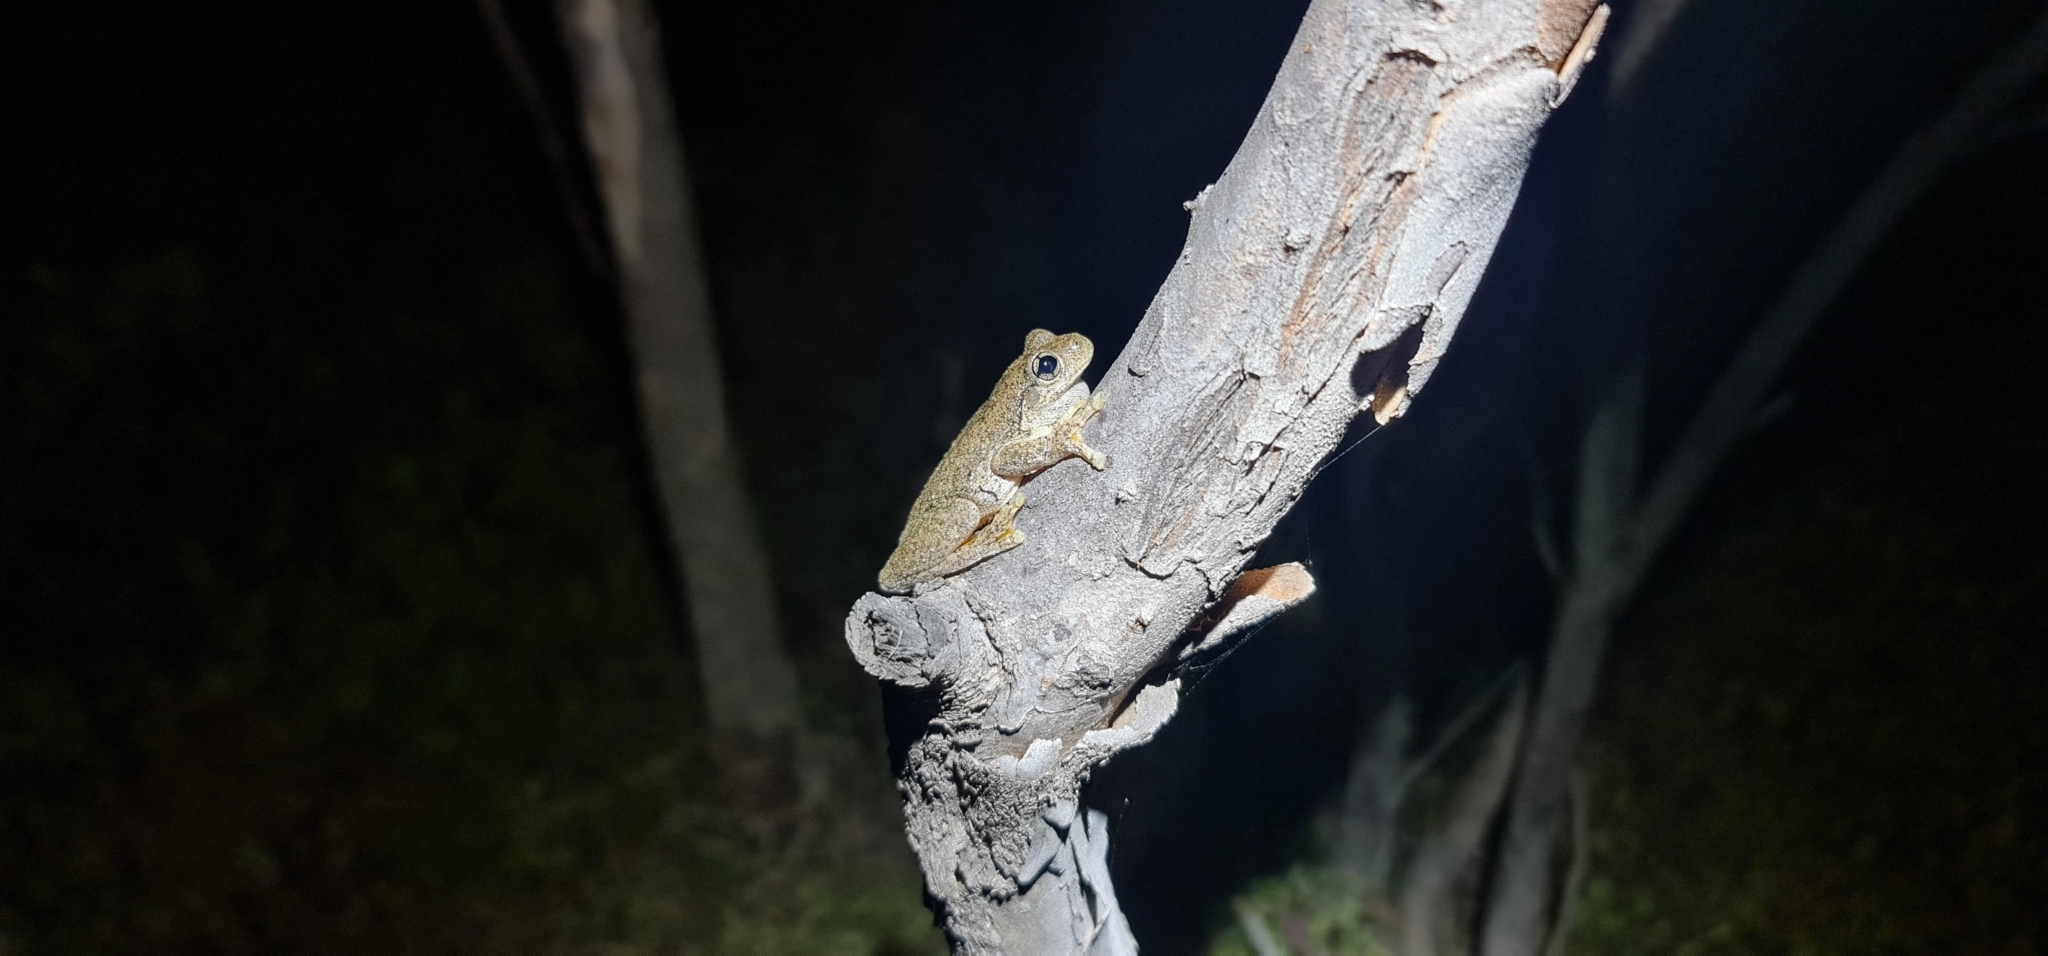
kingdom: Animalia
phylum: Chordata
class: Amphibia
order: Anura
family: Pelodryadidae
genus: Litoria
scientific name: Litoria peronii
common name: Emerald spotted treefrog
